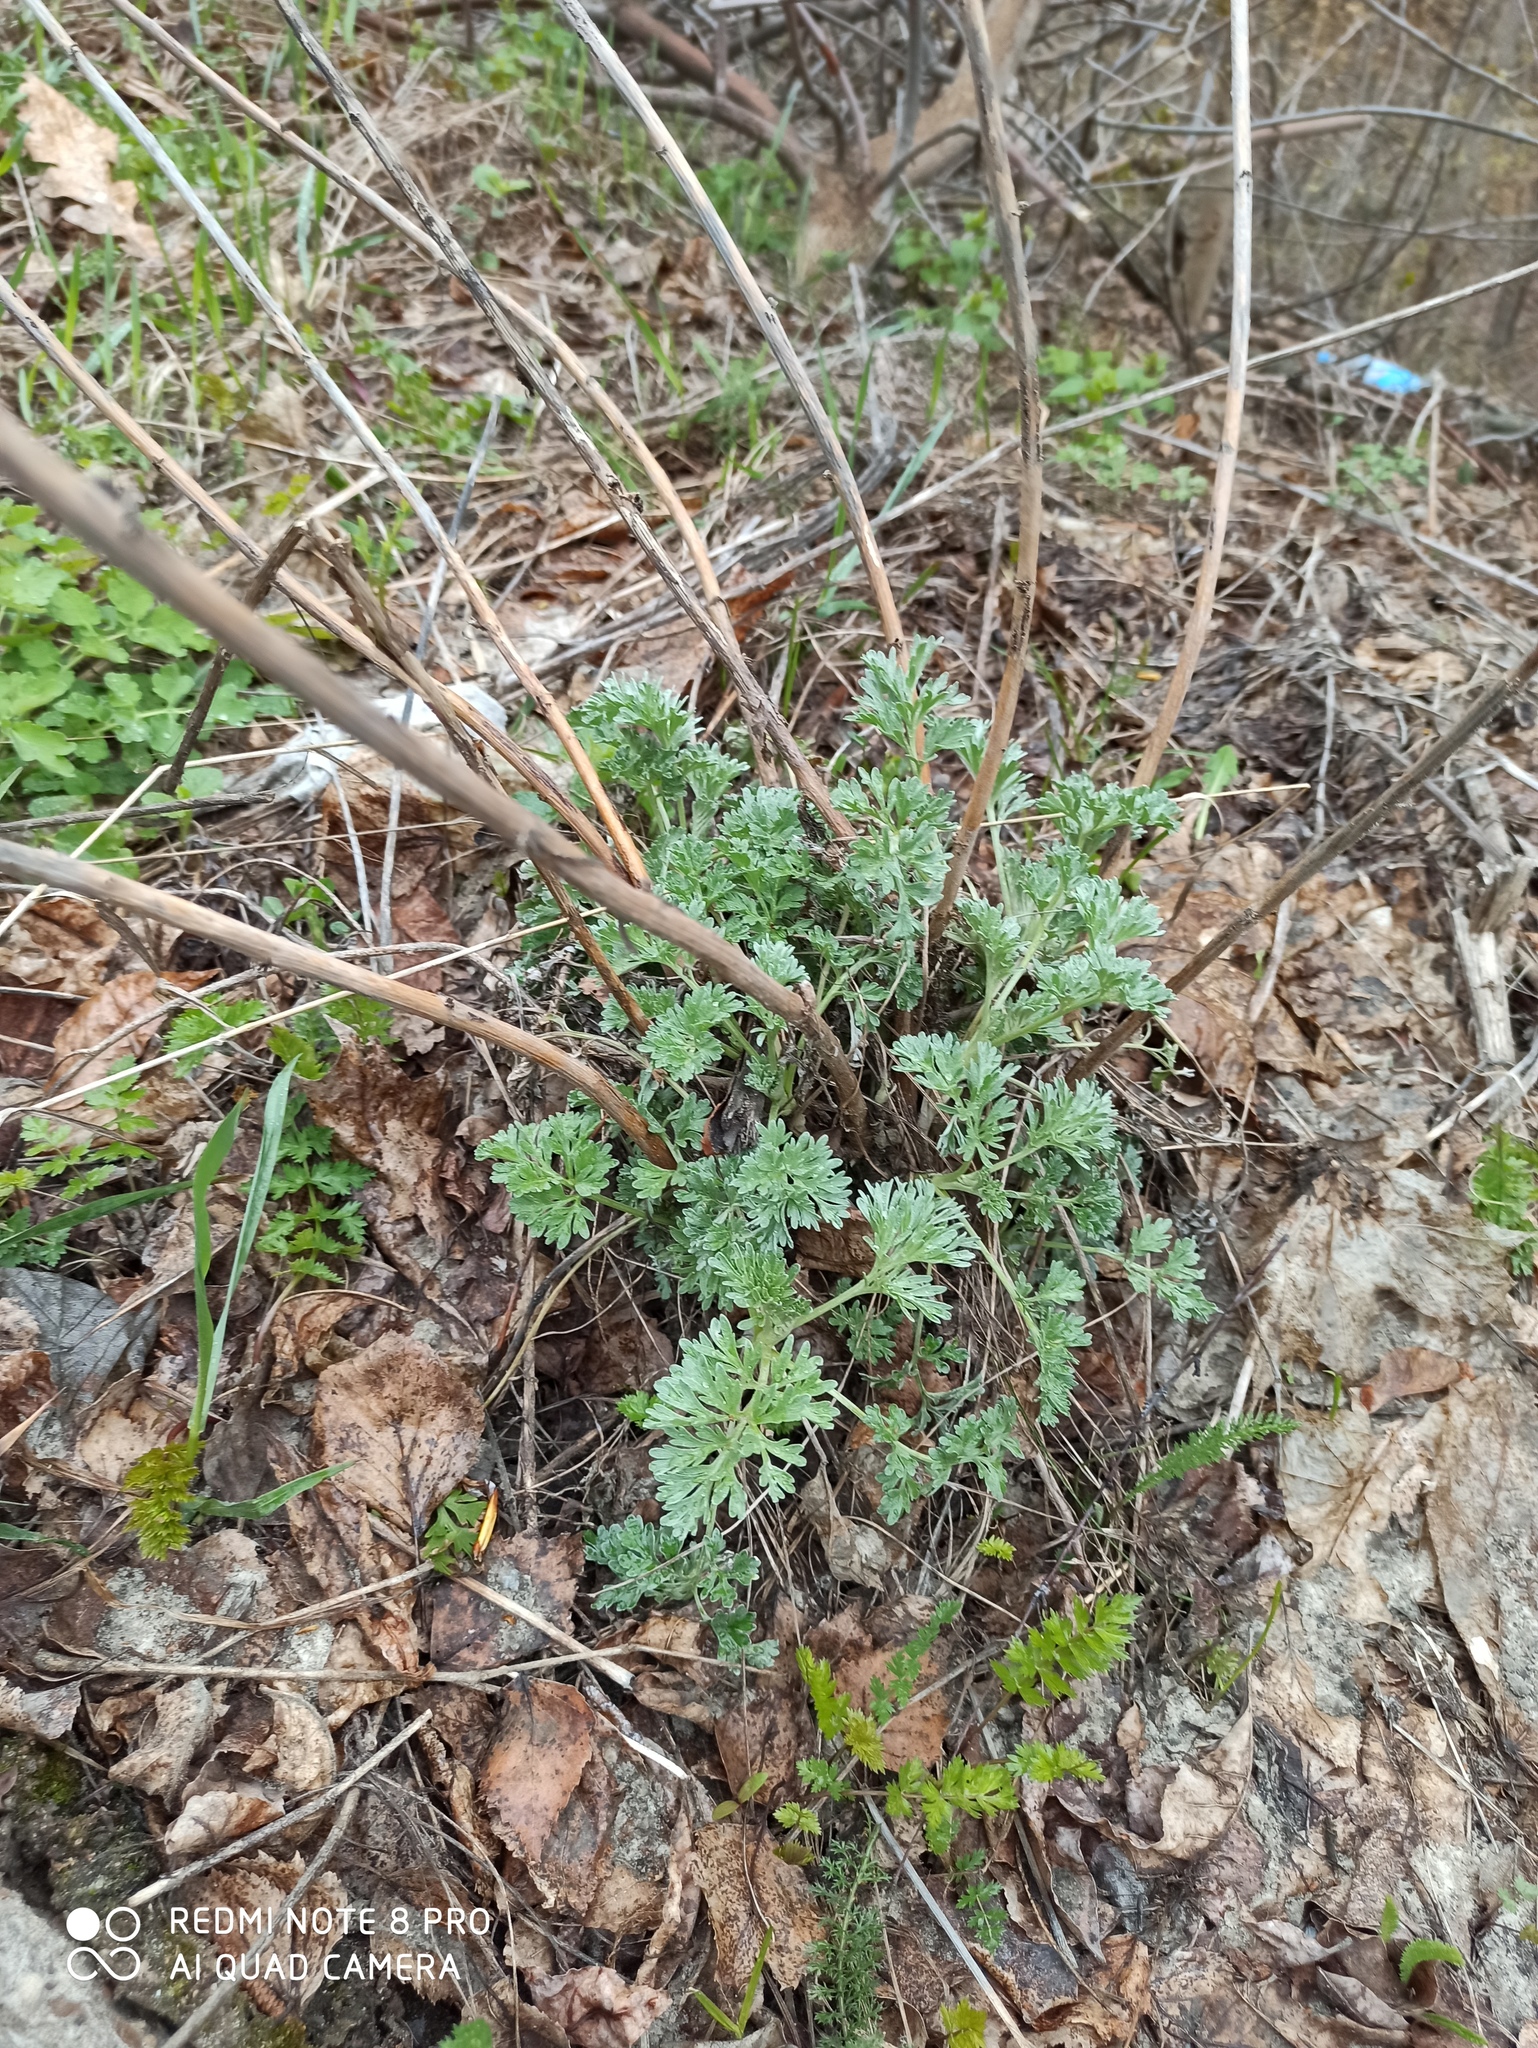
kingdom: Plantae
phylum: Tracheophyta
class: Magnoliopsida
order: Asterales
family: Asteraceae
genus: Artemisia
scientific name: Artemisia absinthium
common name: Wormwood
